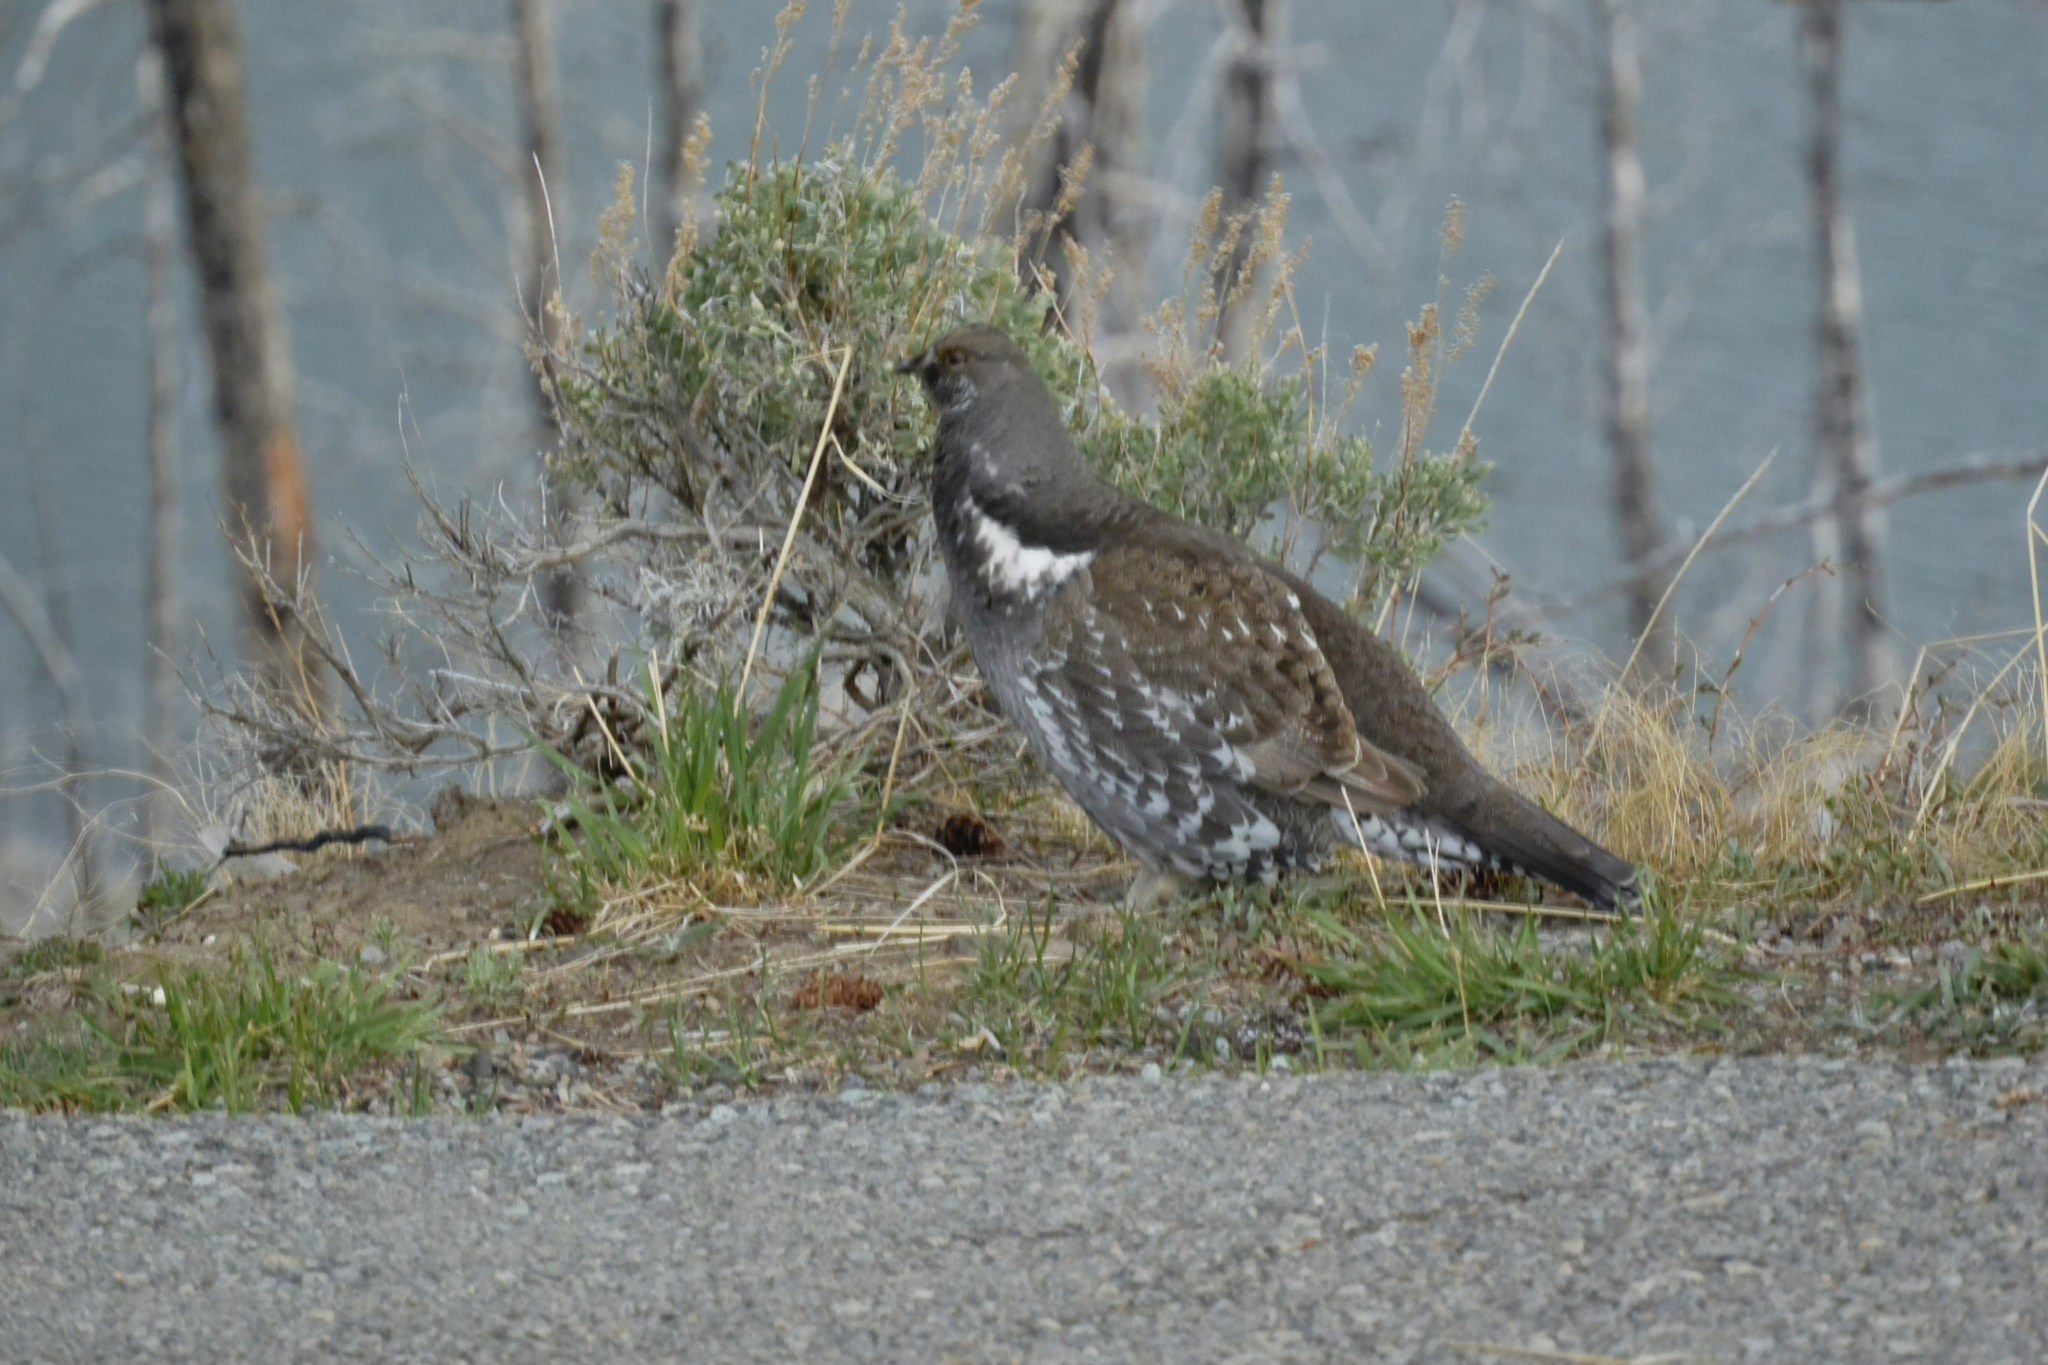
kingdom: Animalia
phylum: Chordata
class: Aves
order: Galliformes
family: Phasianidae
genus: Dendragapus
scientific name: Dendragapus obscurus
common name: Dusky grouse
